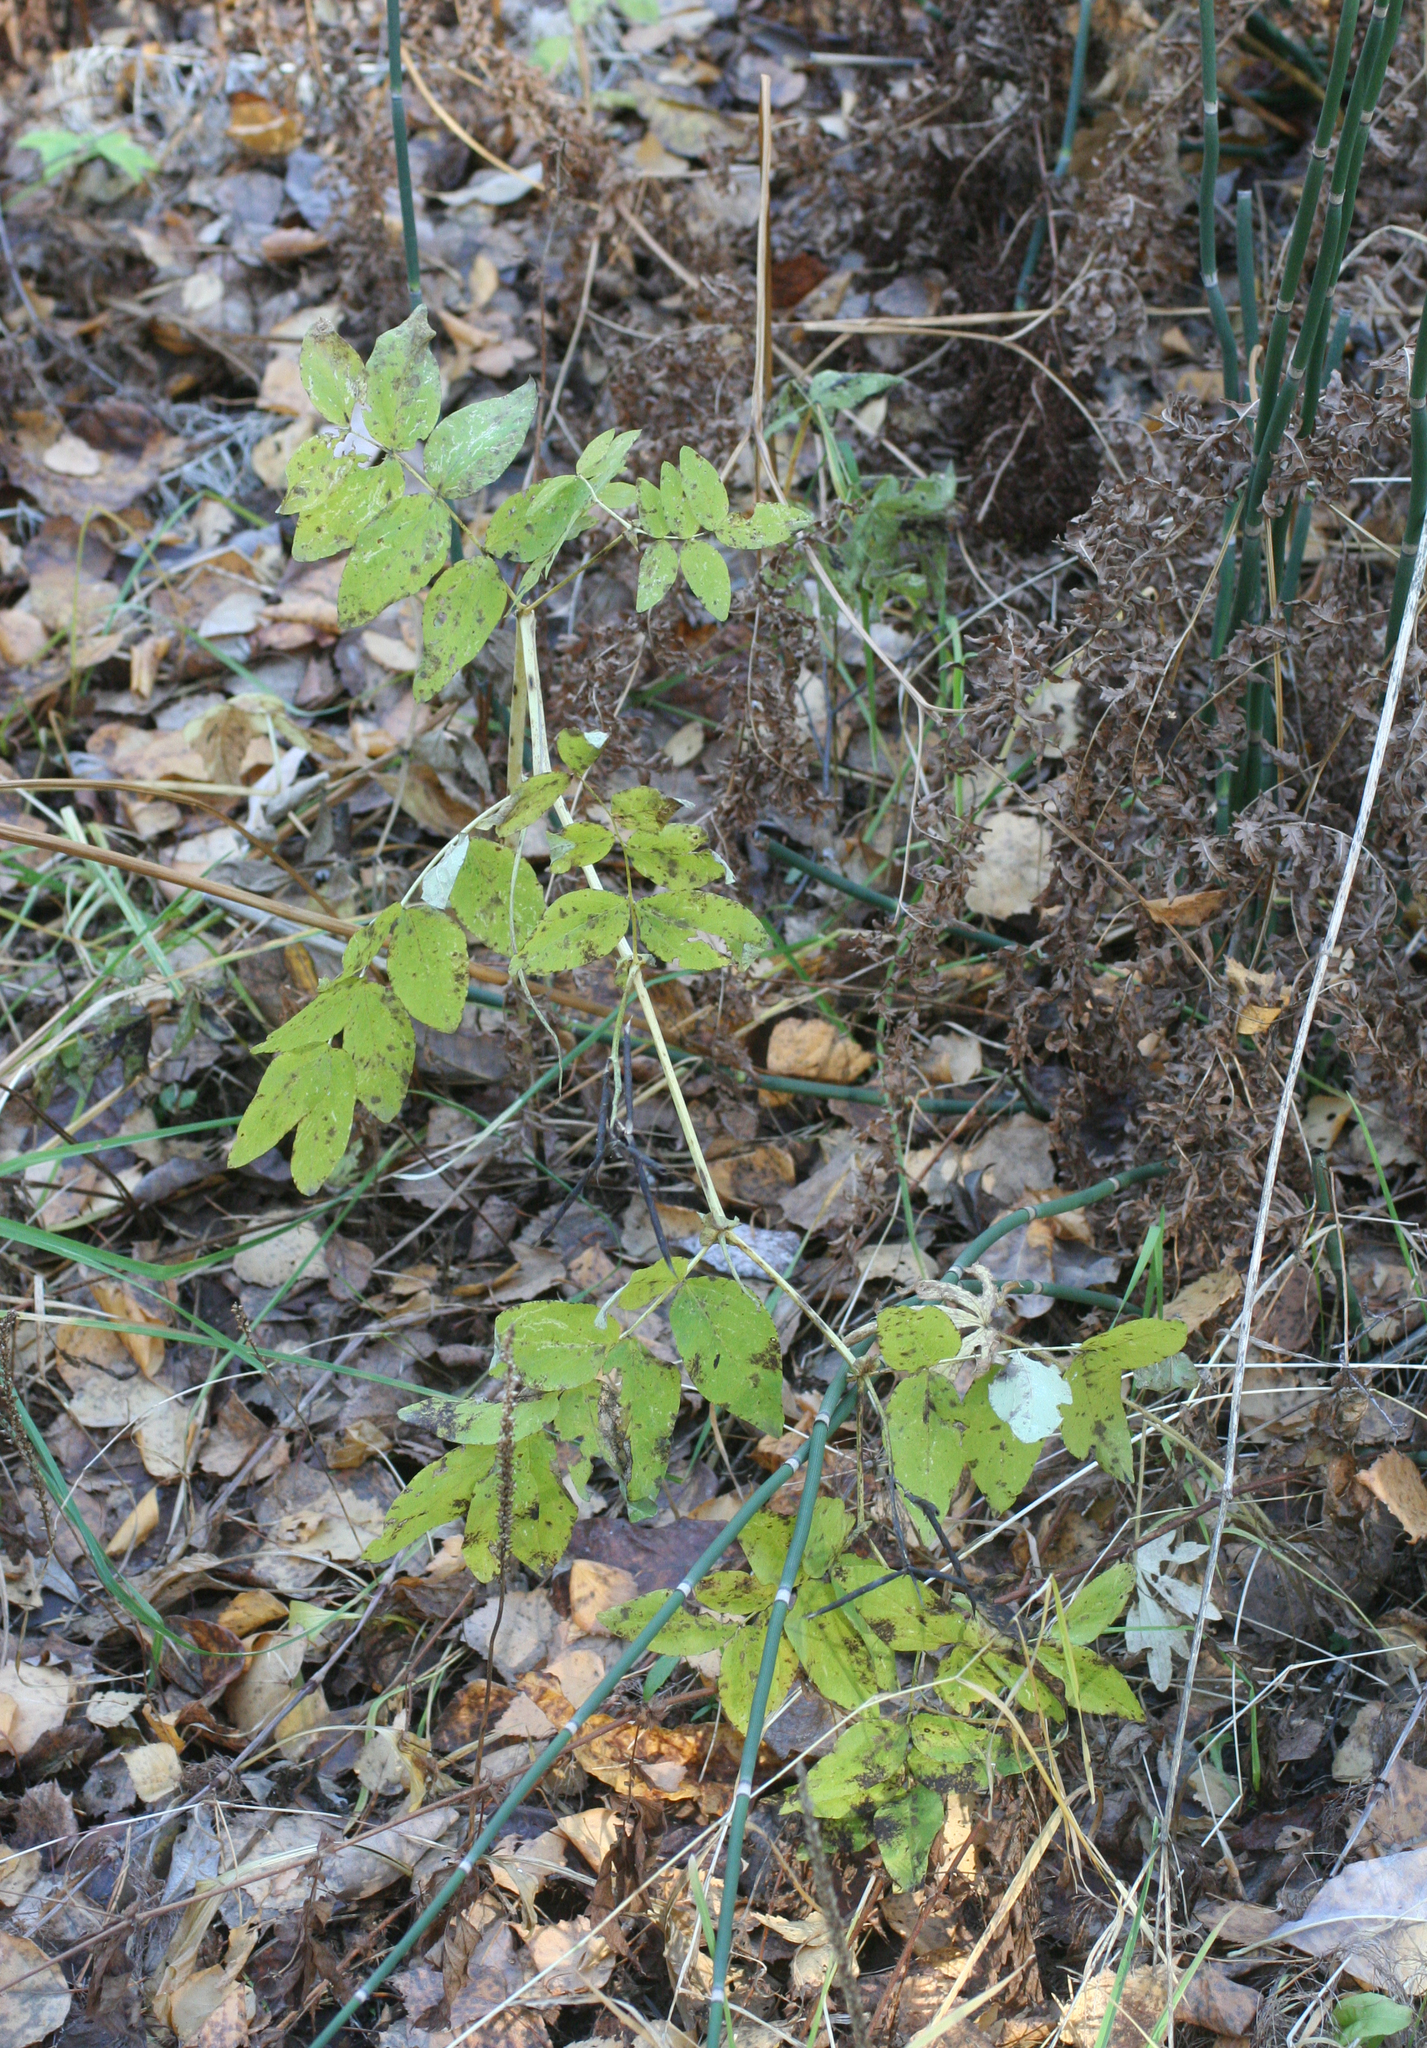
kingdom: Plantae
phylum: Tracheophyta
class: Magnoliopsida
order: Fabales
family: Fabaceae
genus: Lathyrus
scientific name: Lathyrus gmelinii
